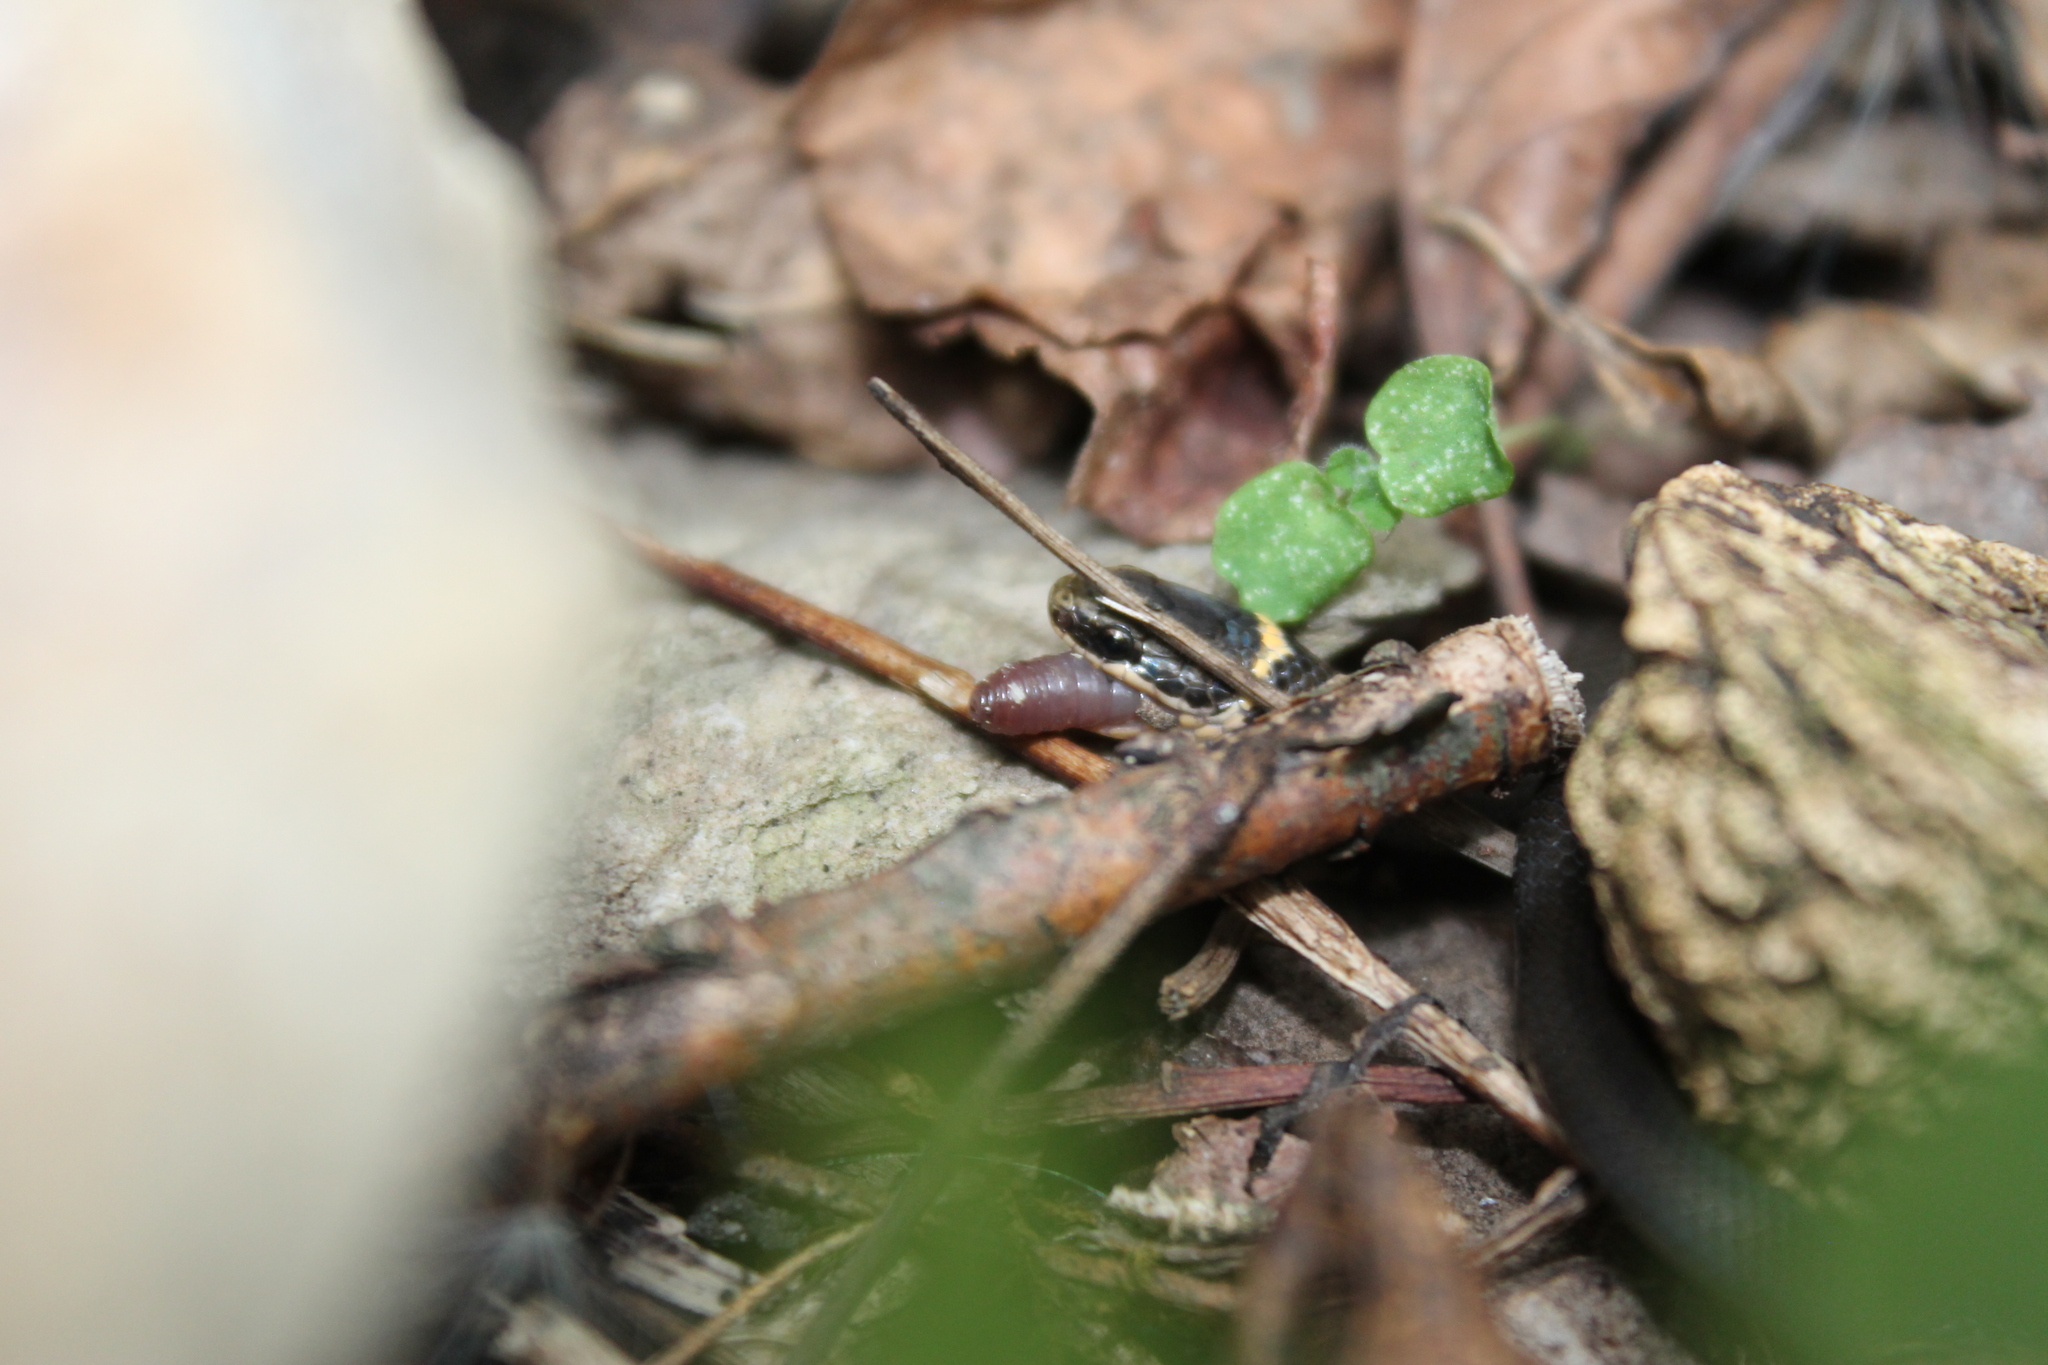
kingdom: Animalia
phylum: Chordata
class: Squamata
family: Colubridae
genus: Diadophis
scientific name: Diadophis punctatus
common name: Ringneck snake
